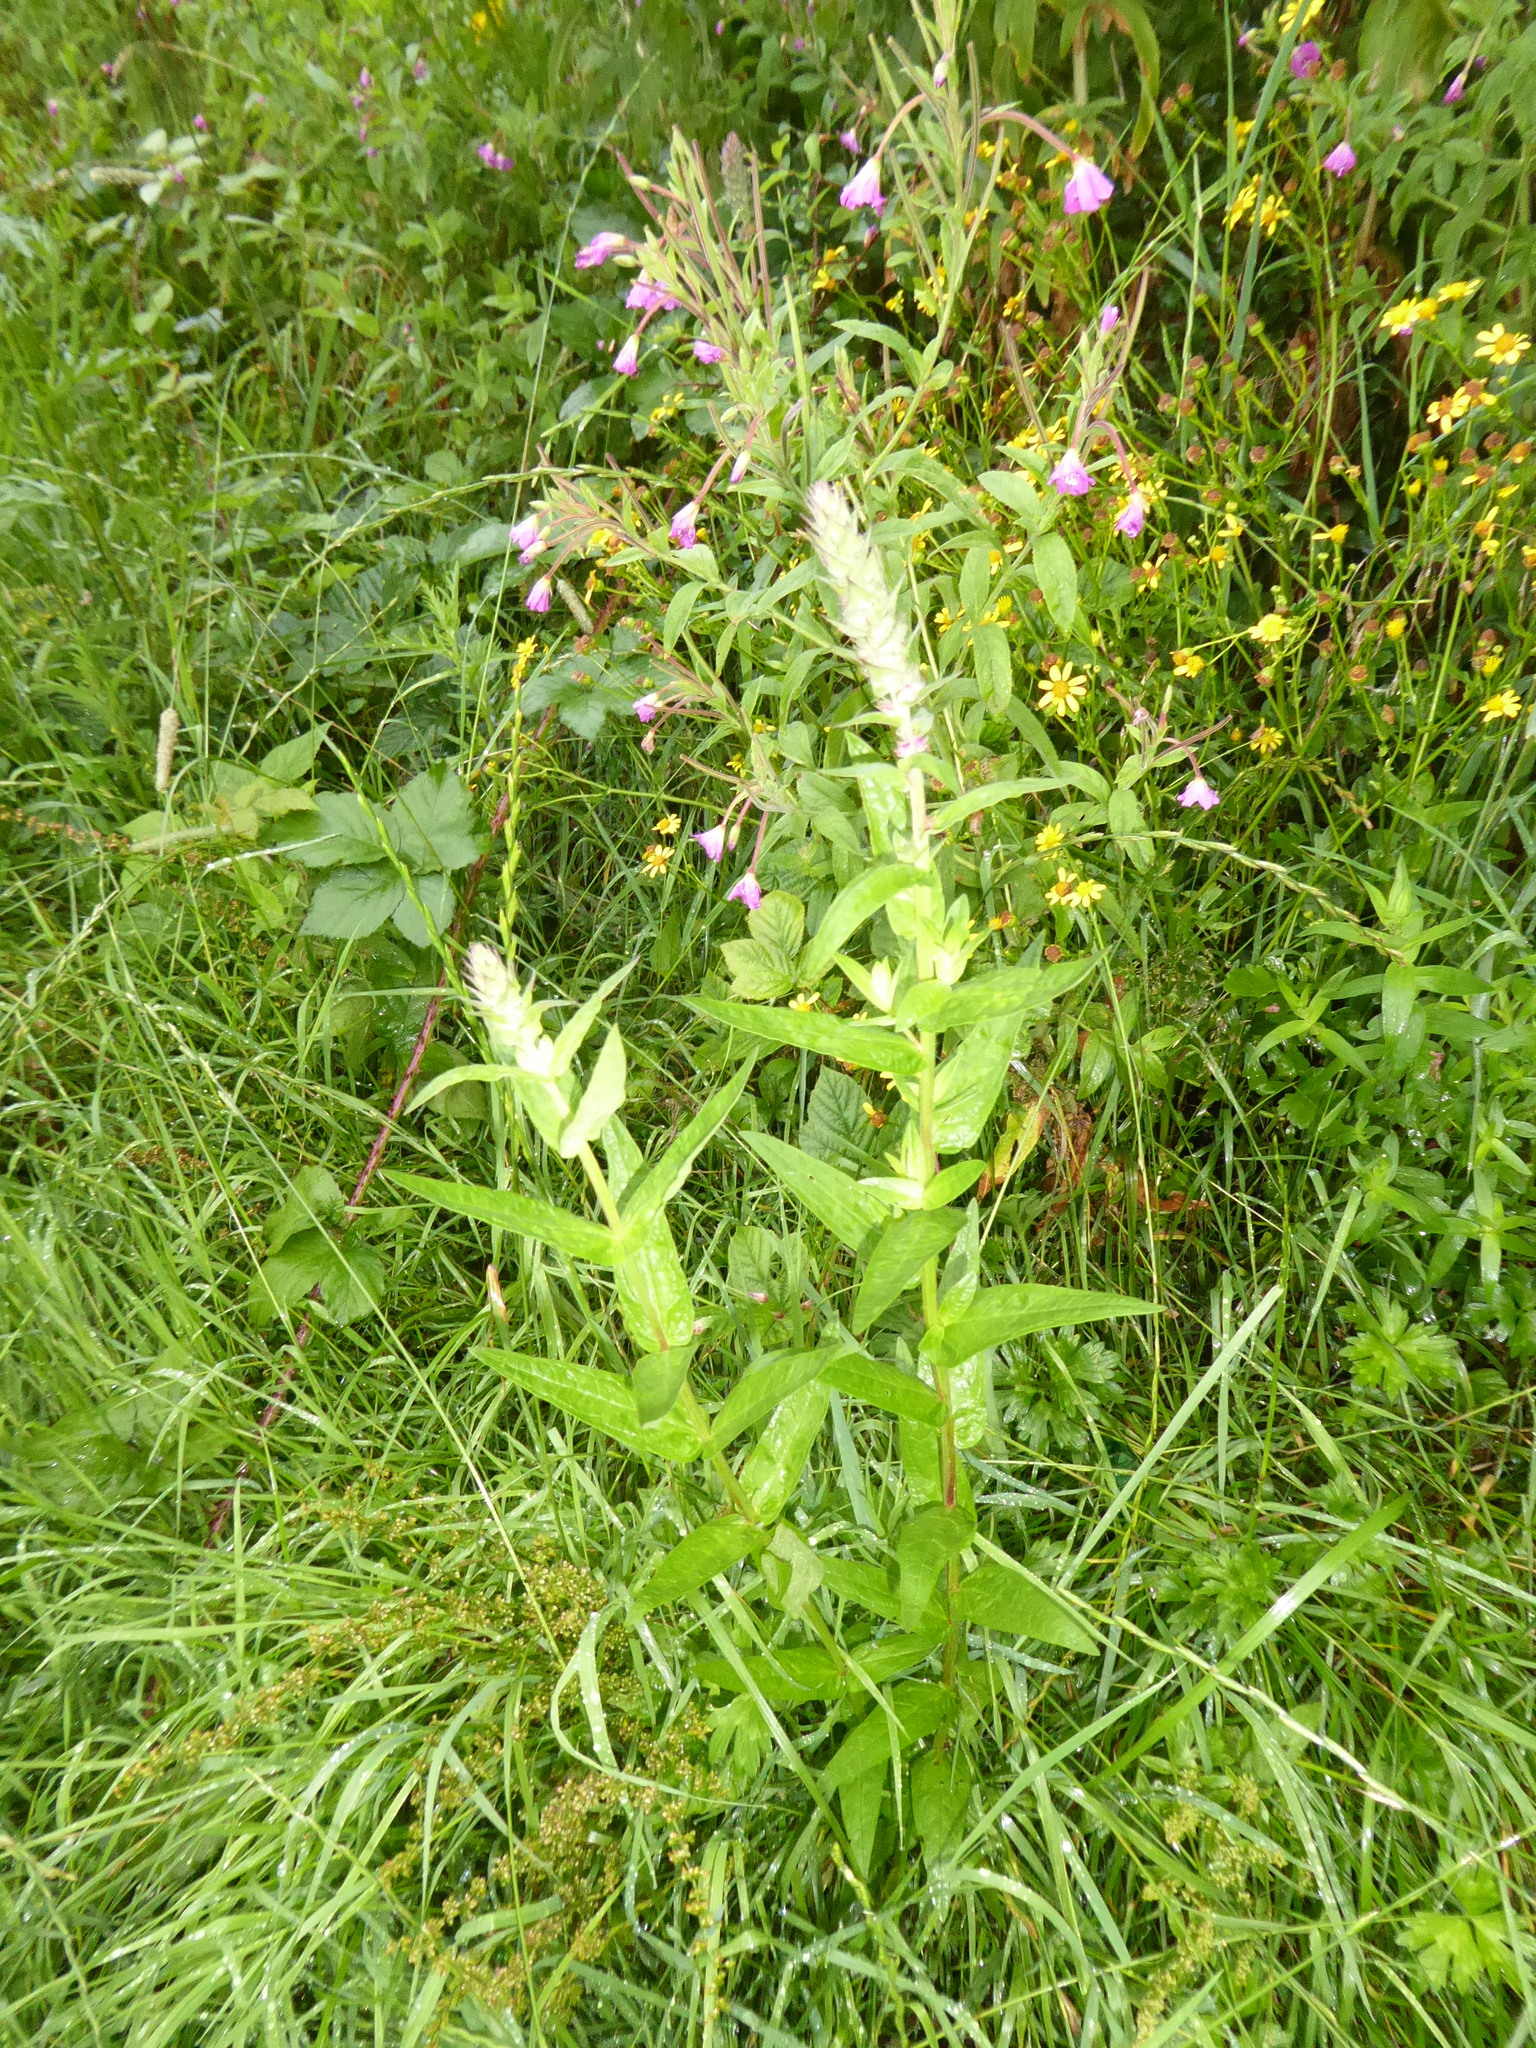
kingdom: Plantae
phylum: Tracheophyta
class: Magnoliopsida
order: Myrtales
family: Lythraceae
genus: Lythrum
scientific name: Lythrum salicaria
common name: Purple loosestrife
